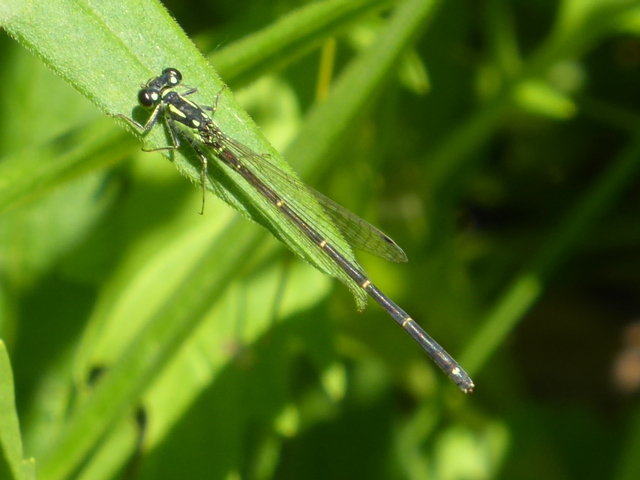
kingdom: Animalia
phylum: Arthropoda
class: Insecta
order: Odonata
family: Coenagrionidae
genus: Ischnura
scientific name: Ischnura posita
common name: Fragile forktail
